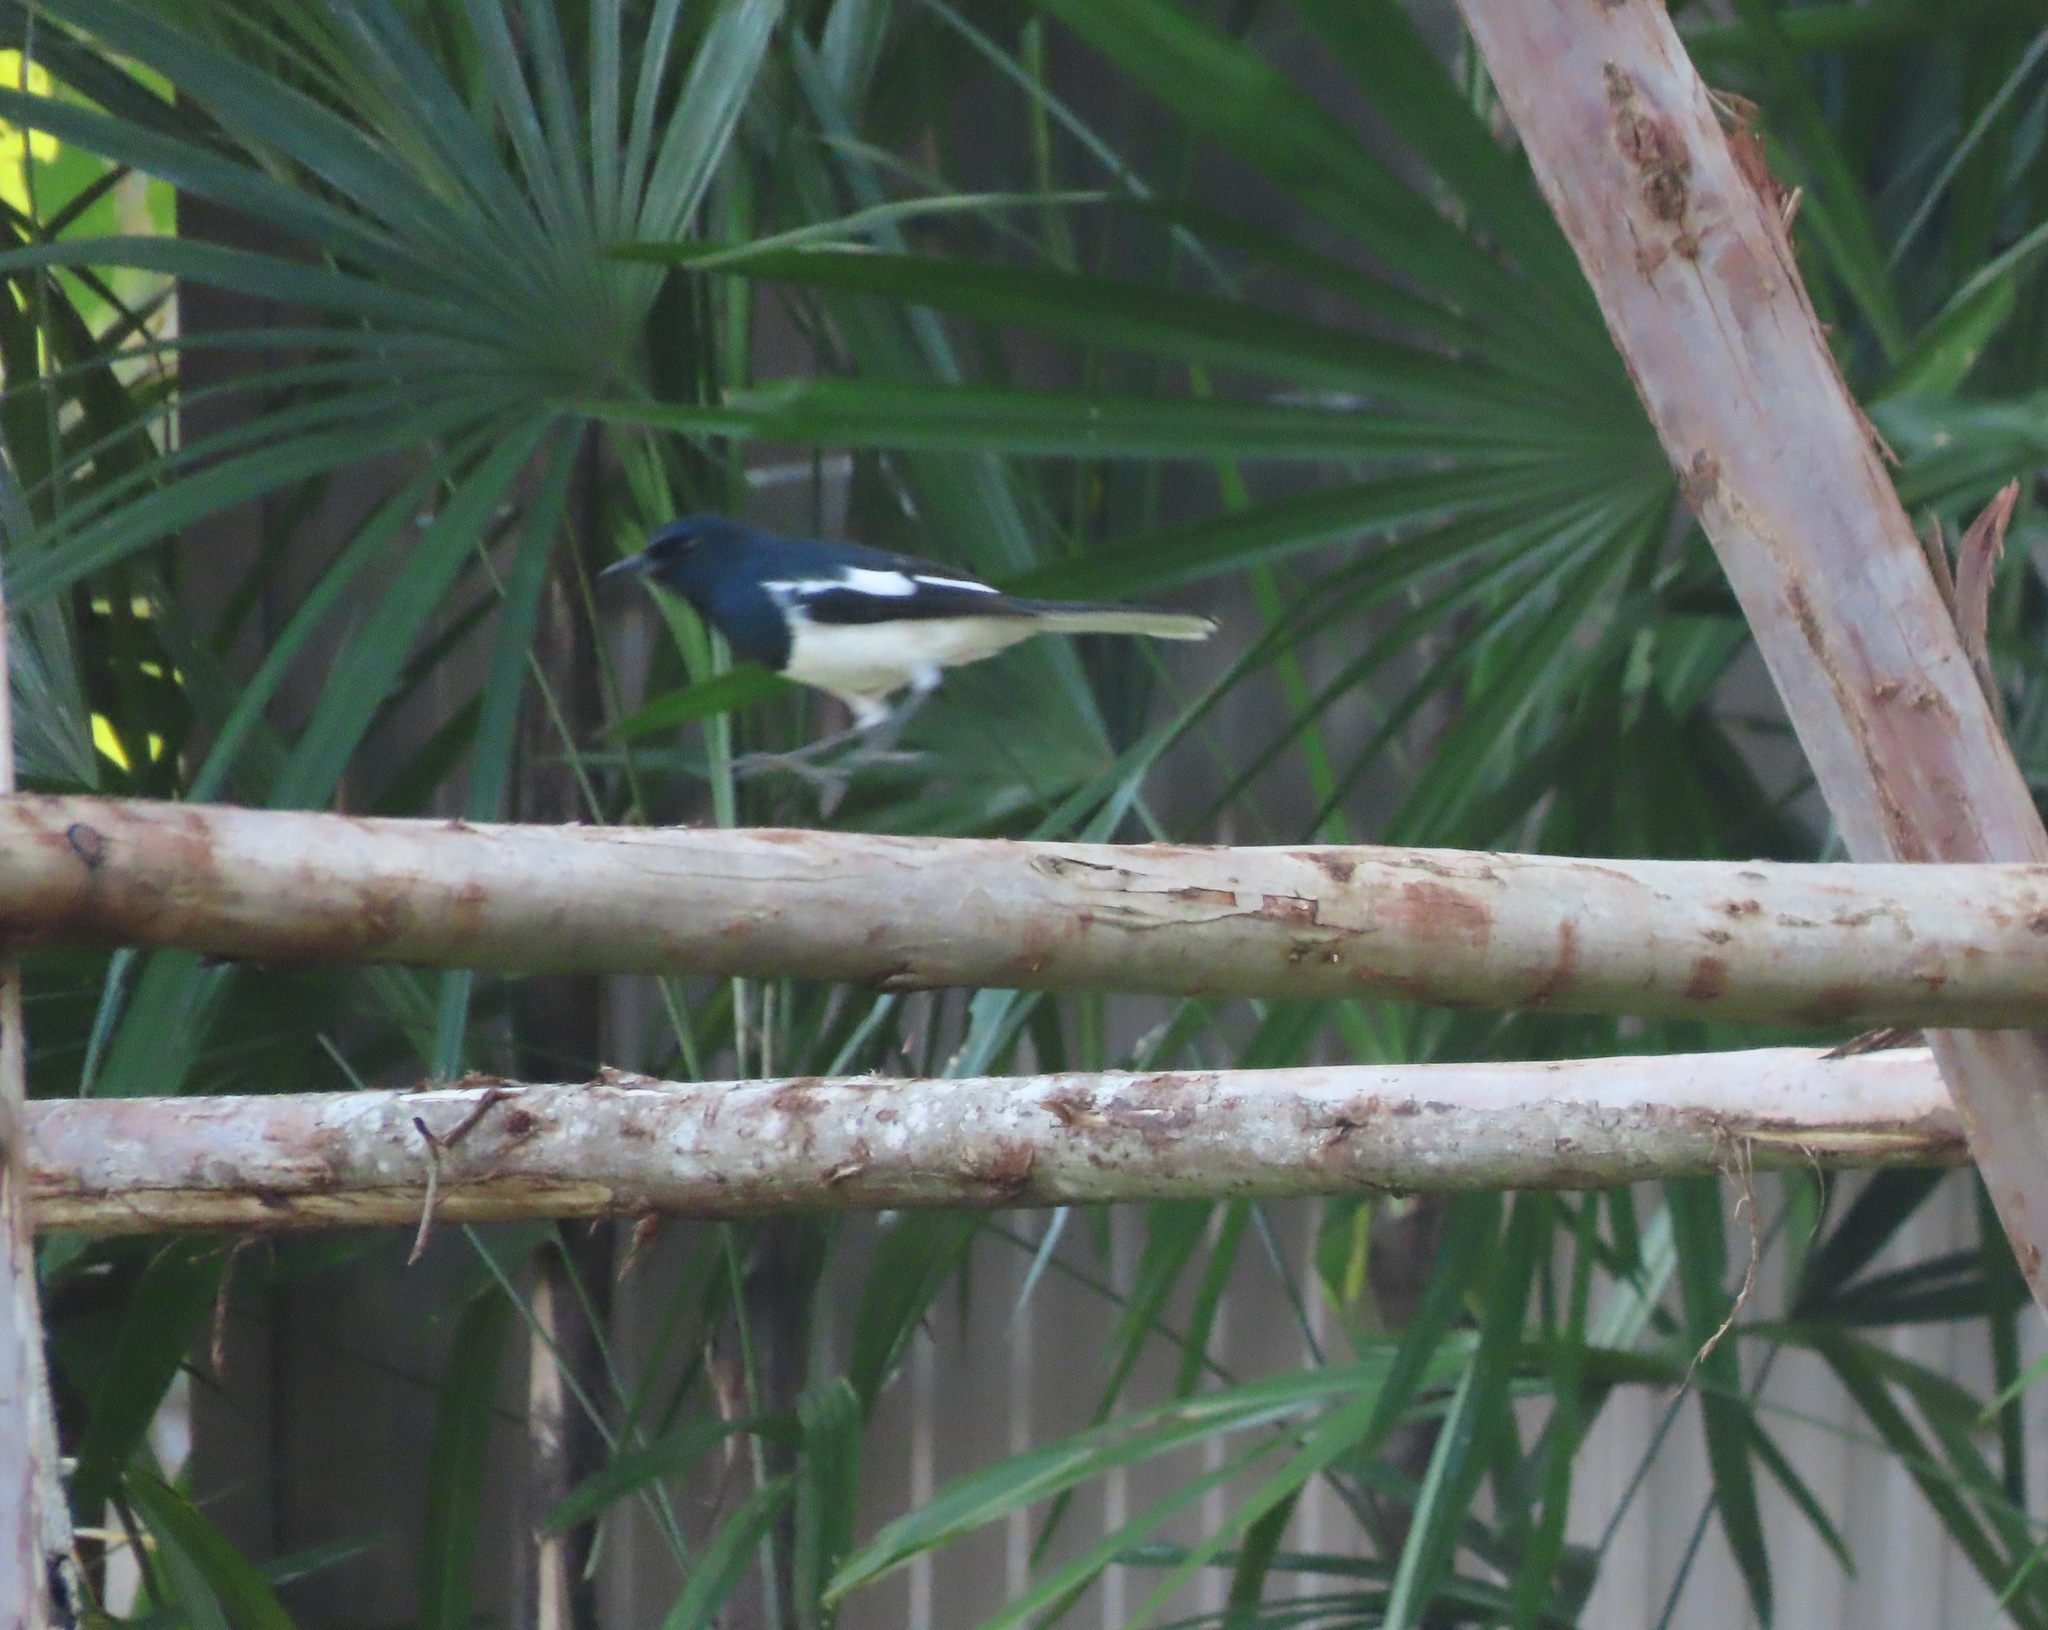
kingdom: Animalia
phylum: Chordata
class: Aves
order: Passeriformes
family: Muscicapidae
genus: Copsychus
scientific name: Copsychus saularis
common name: Oriental magpie-robin
